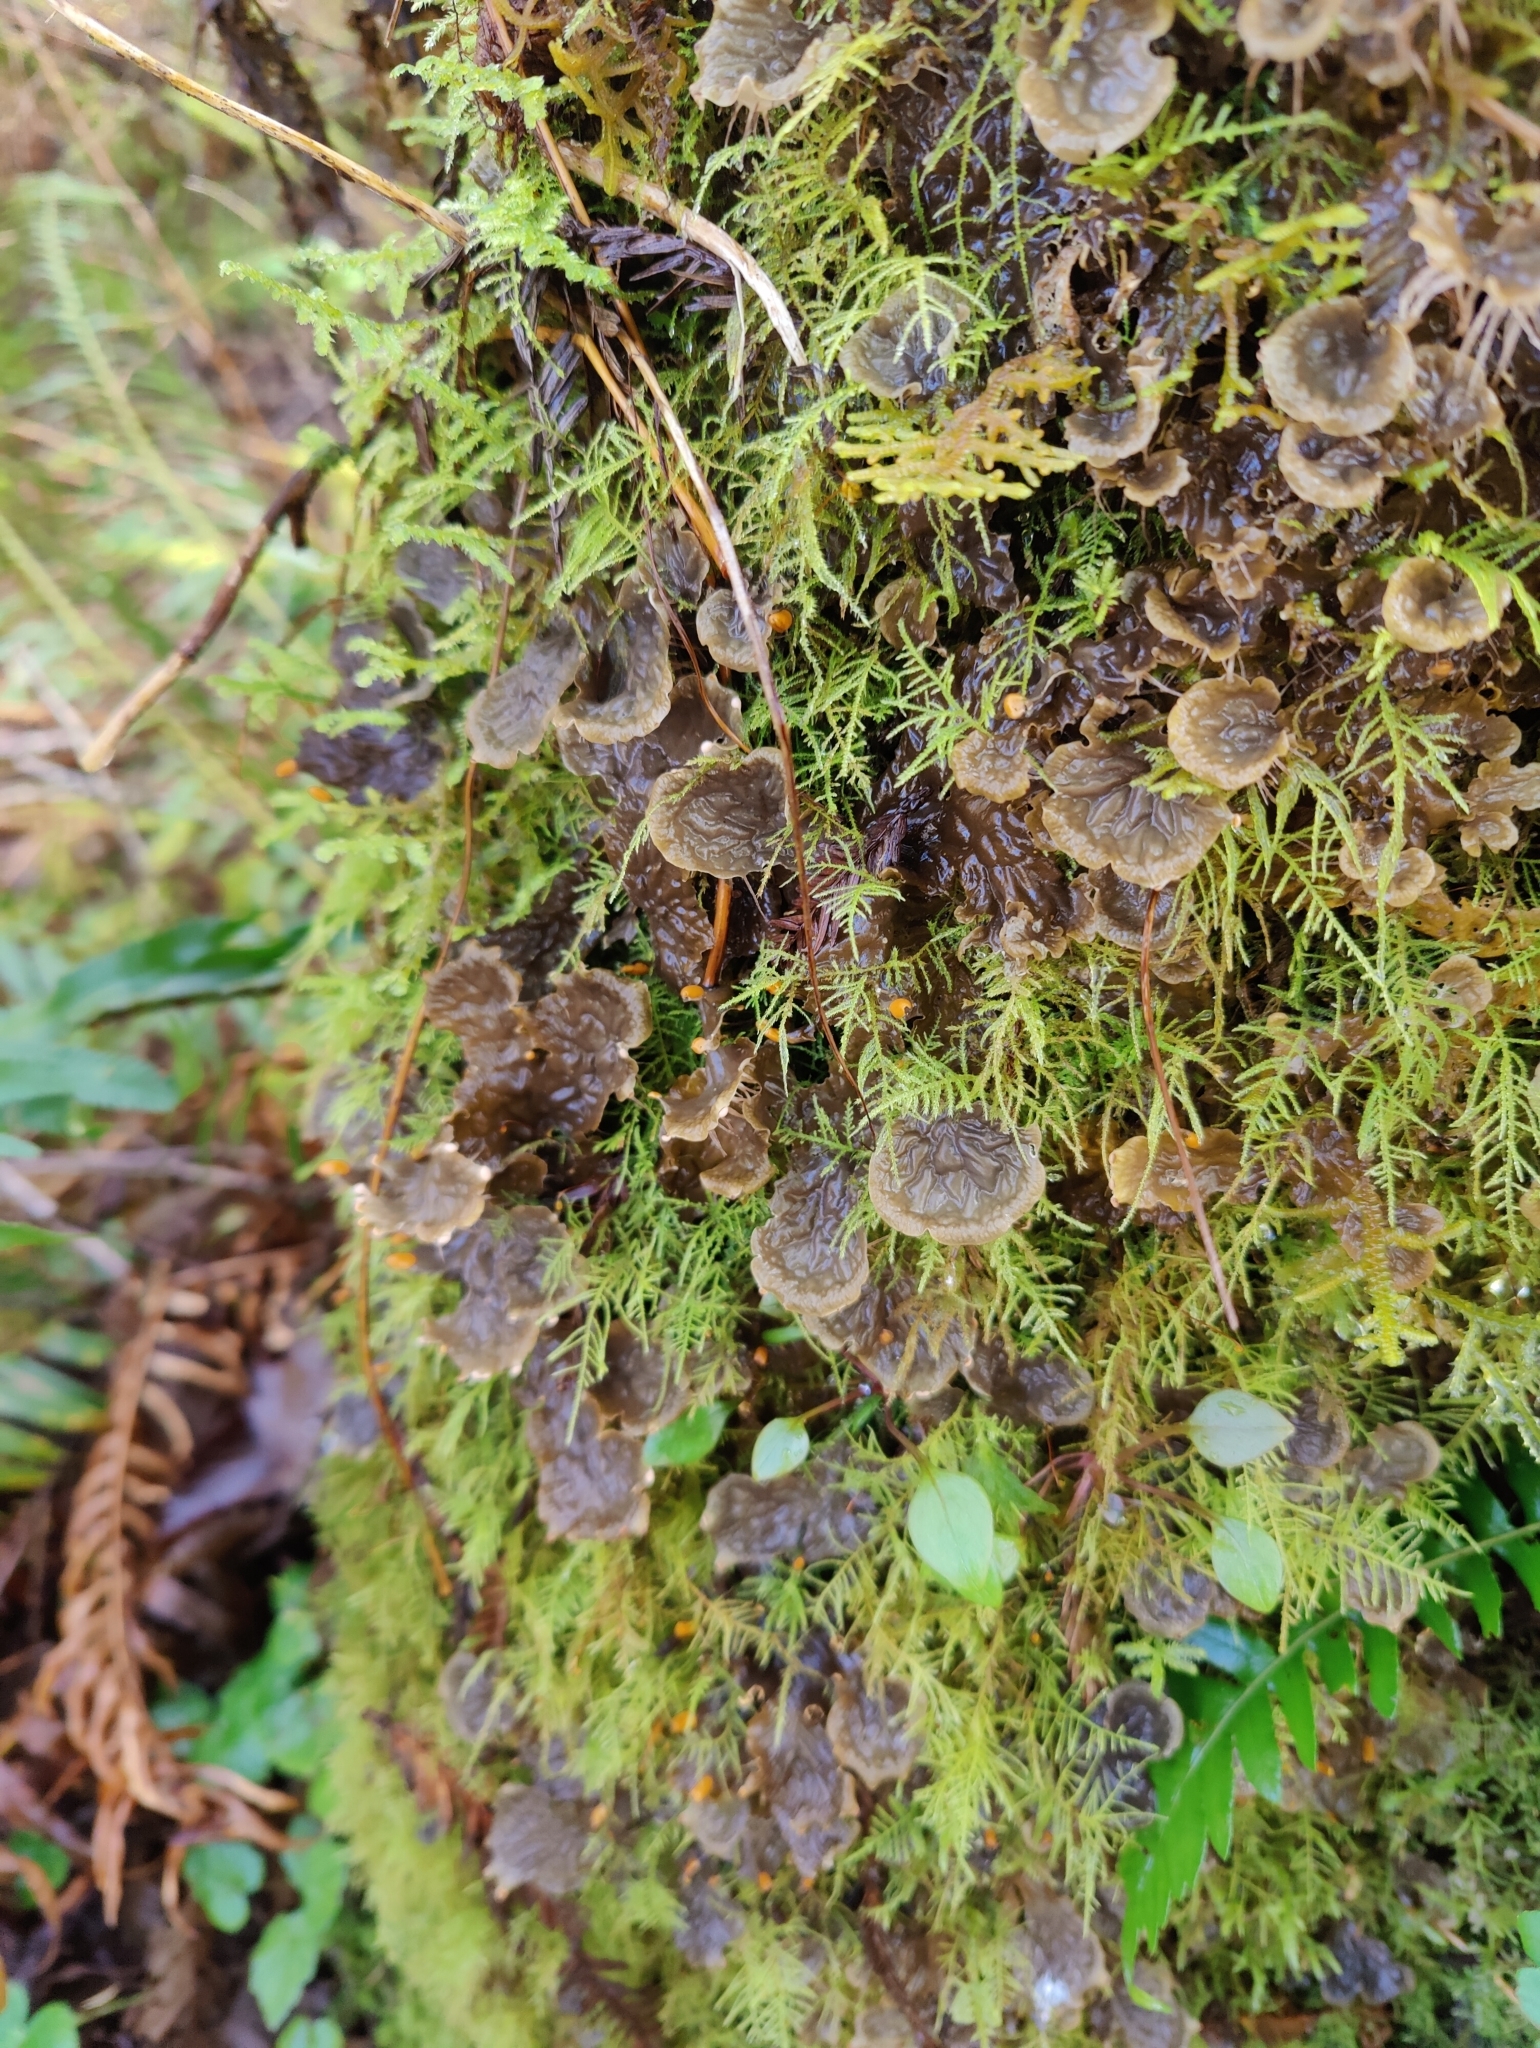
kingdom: Fungi
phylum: Ascomycota
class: Lecanoromycetes
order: Peltigerales
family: Peltigeraceae
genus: Peltigera
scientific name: Peltigera membranacea
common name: Membranous pelt lichen
